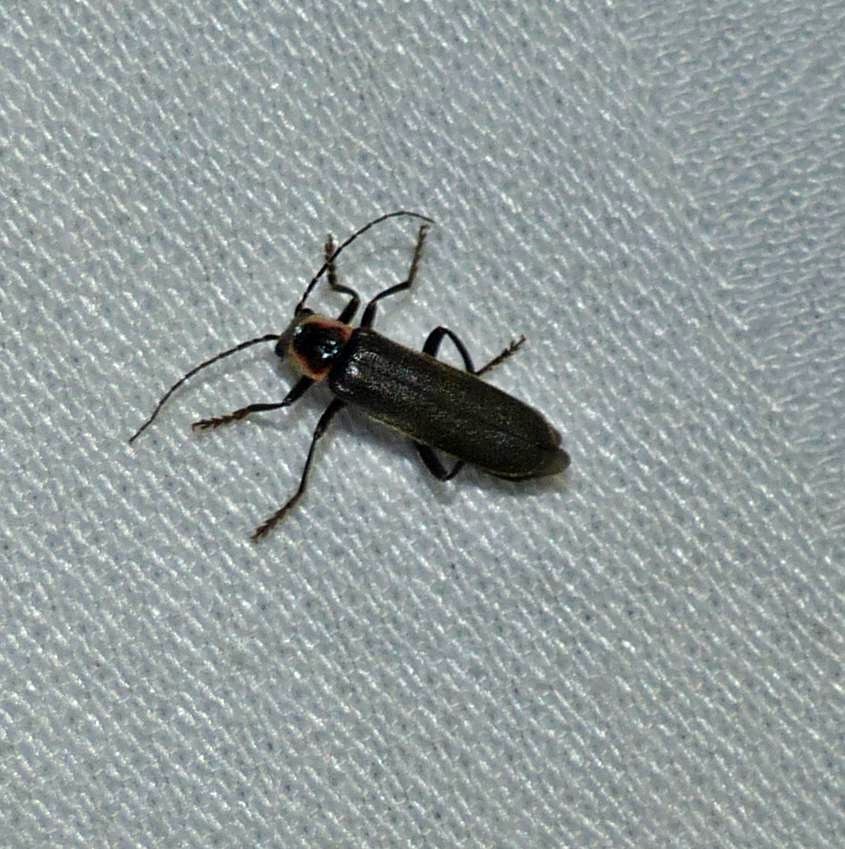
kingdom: Animalia
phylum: Arthropoda
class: Insecta
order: Coleoptera
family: Cantharidae
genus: Rhaxonycha
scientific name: Rhaxonycha carolina
